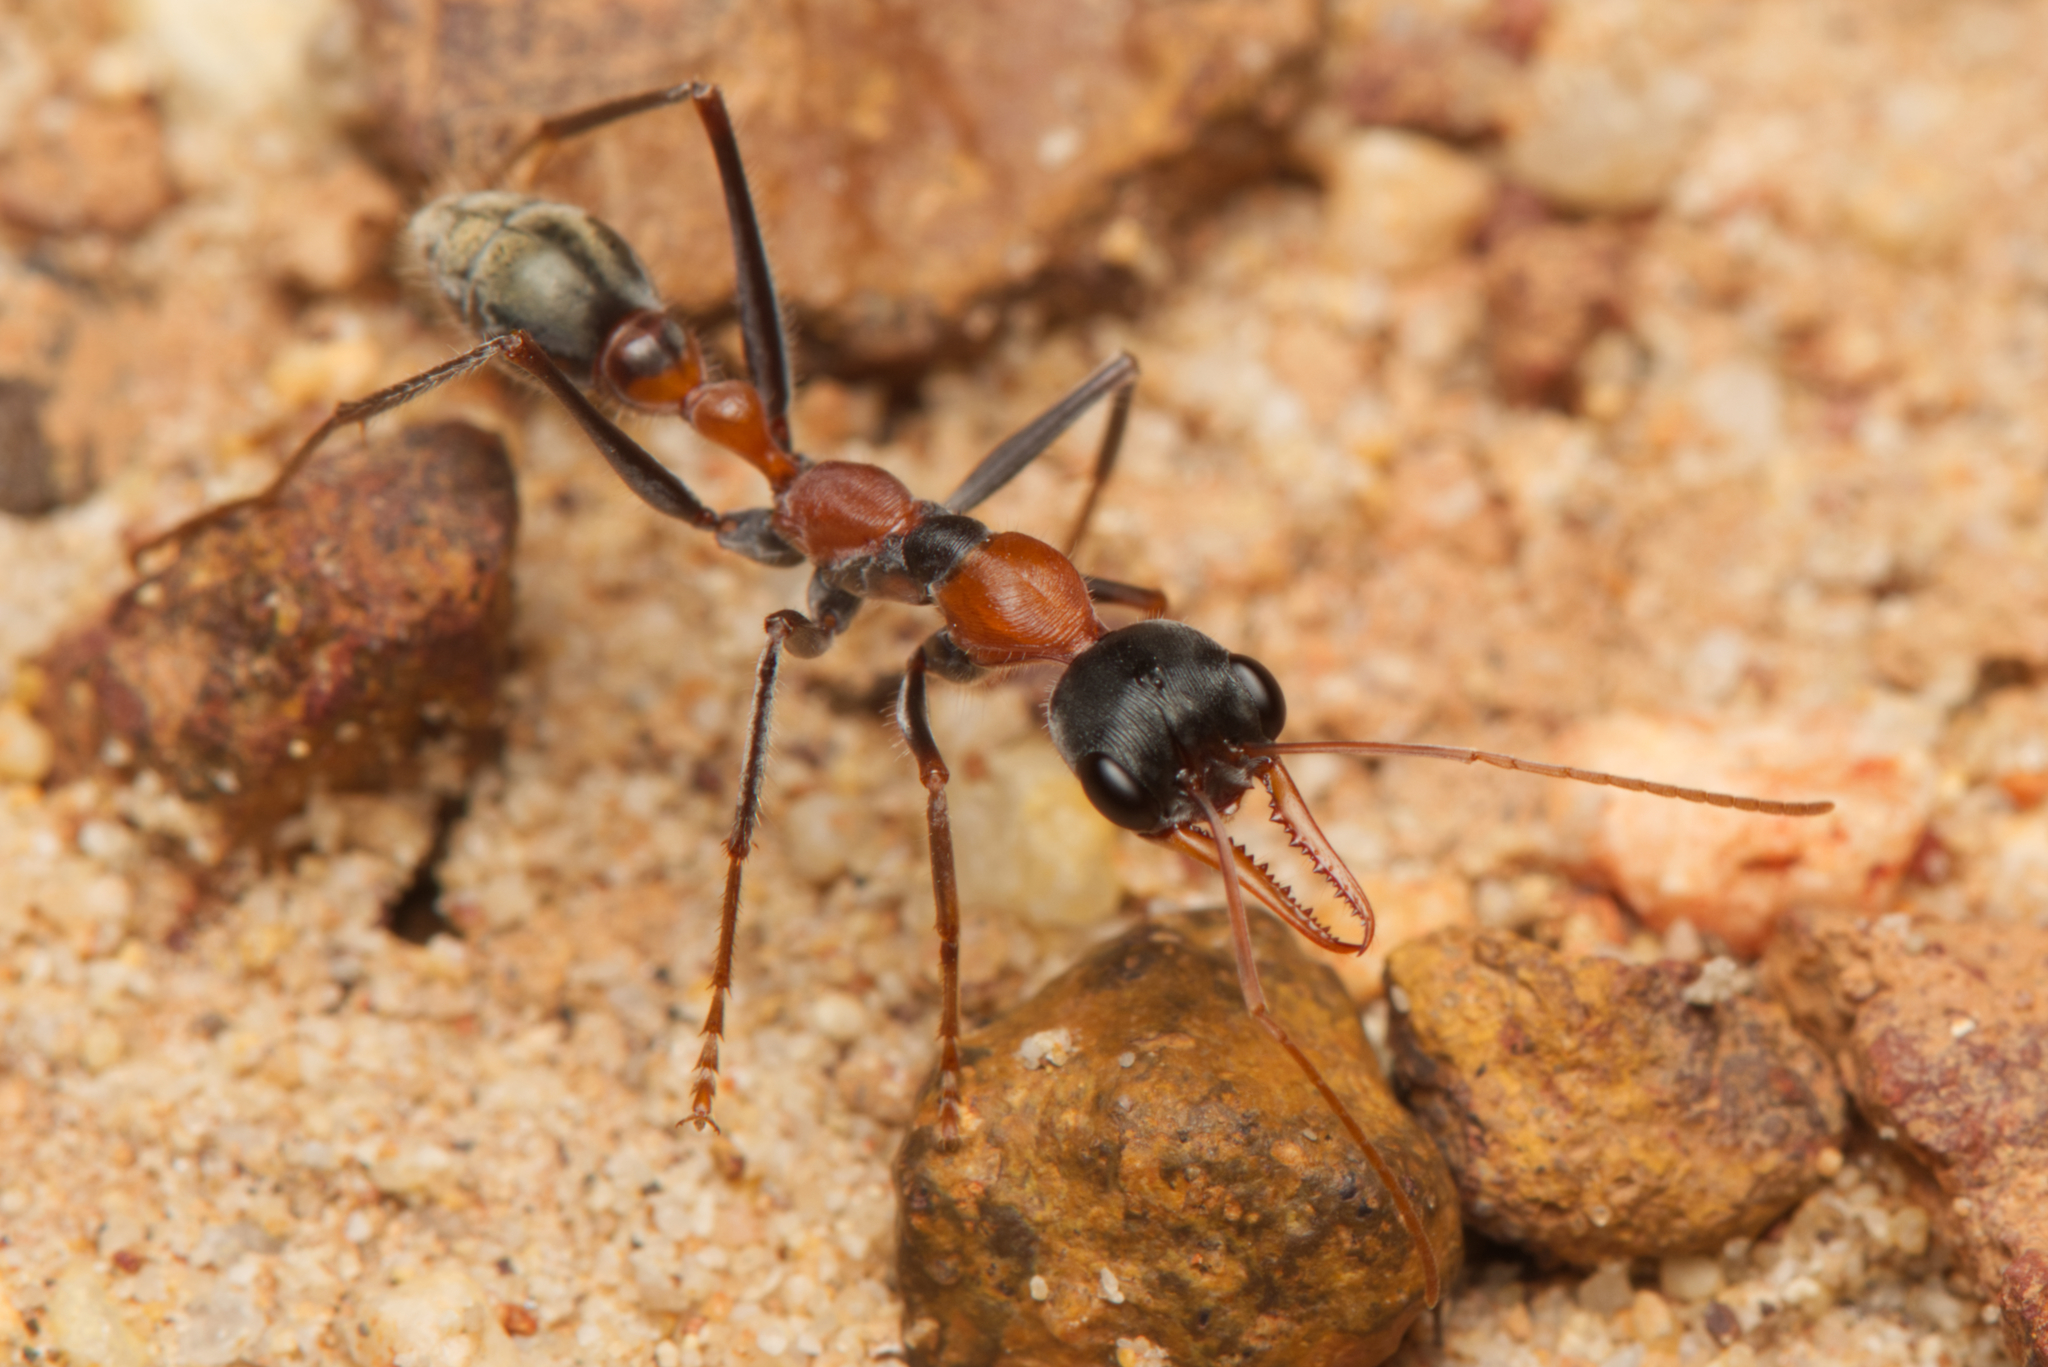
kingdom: Animalia
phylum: Arthropoda
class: Insecta
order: Hymenoptera
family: Formicidae
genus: Myrmecia
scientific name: Myrmecia nigrocincta
